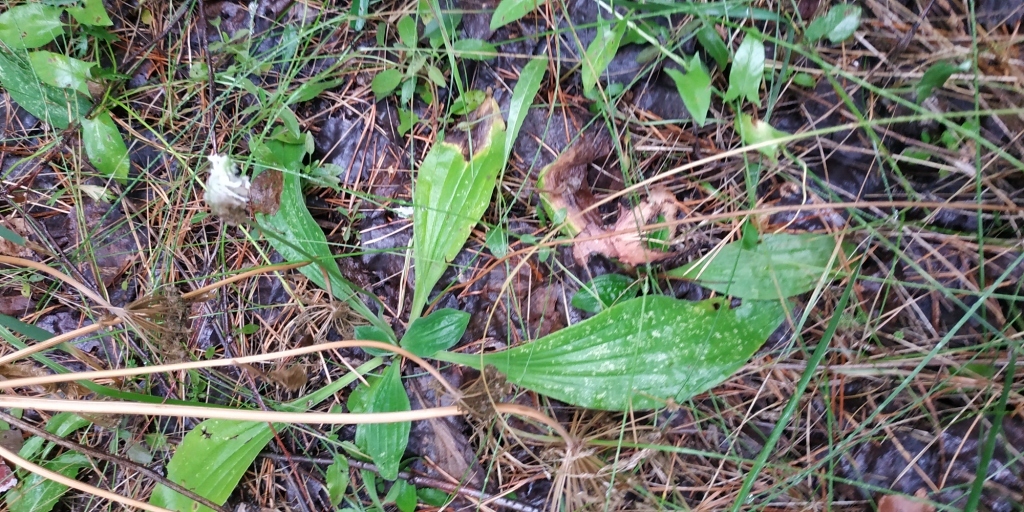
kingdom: Plantae
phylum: Tracheophyta
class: Magnoliopsida
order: Lamiales
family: Plantaginaceae
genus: Plantago
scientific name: Plantago media
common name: Hoary plantain
